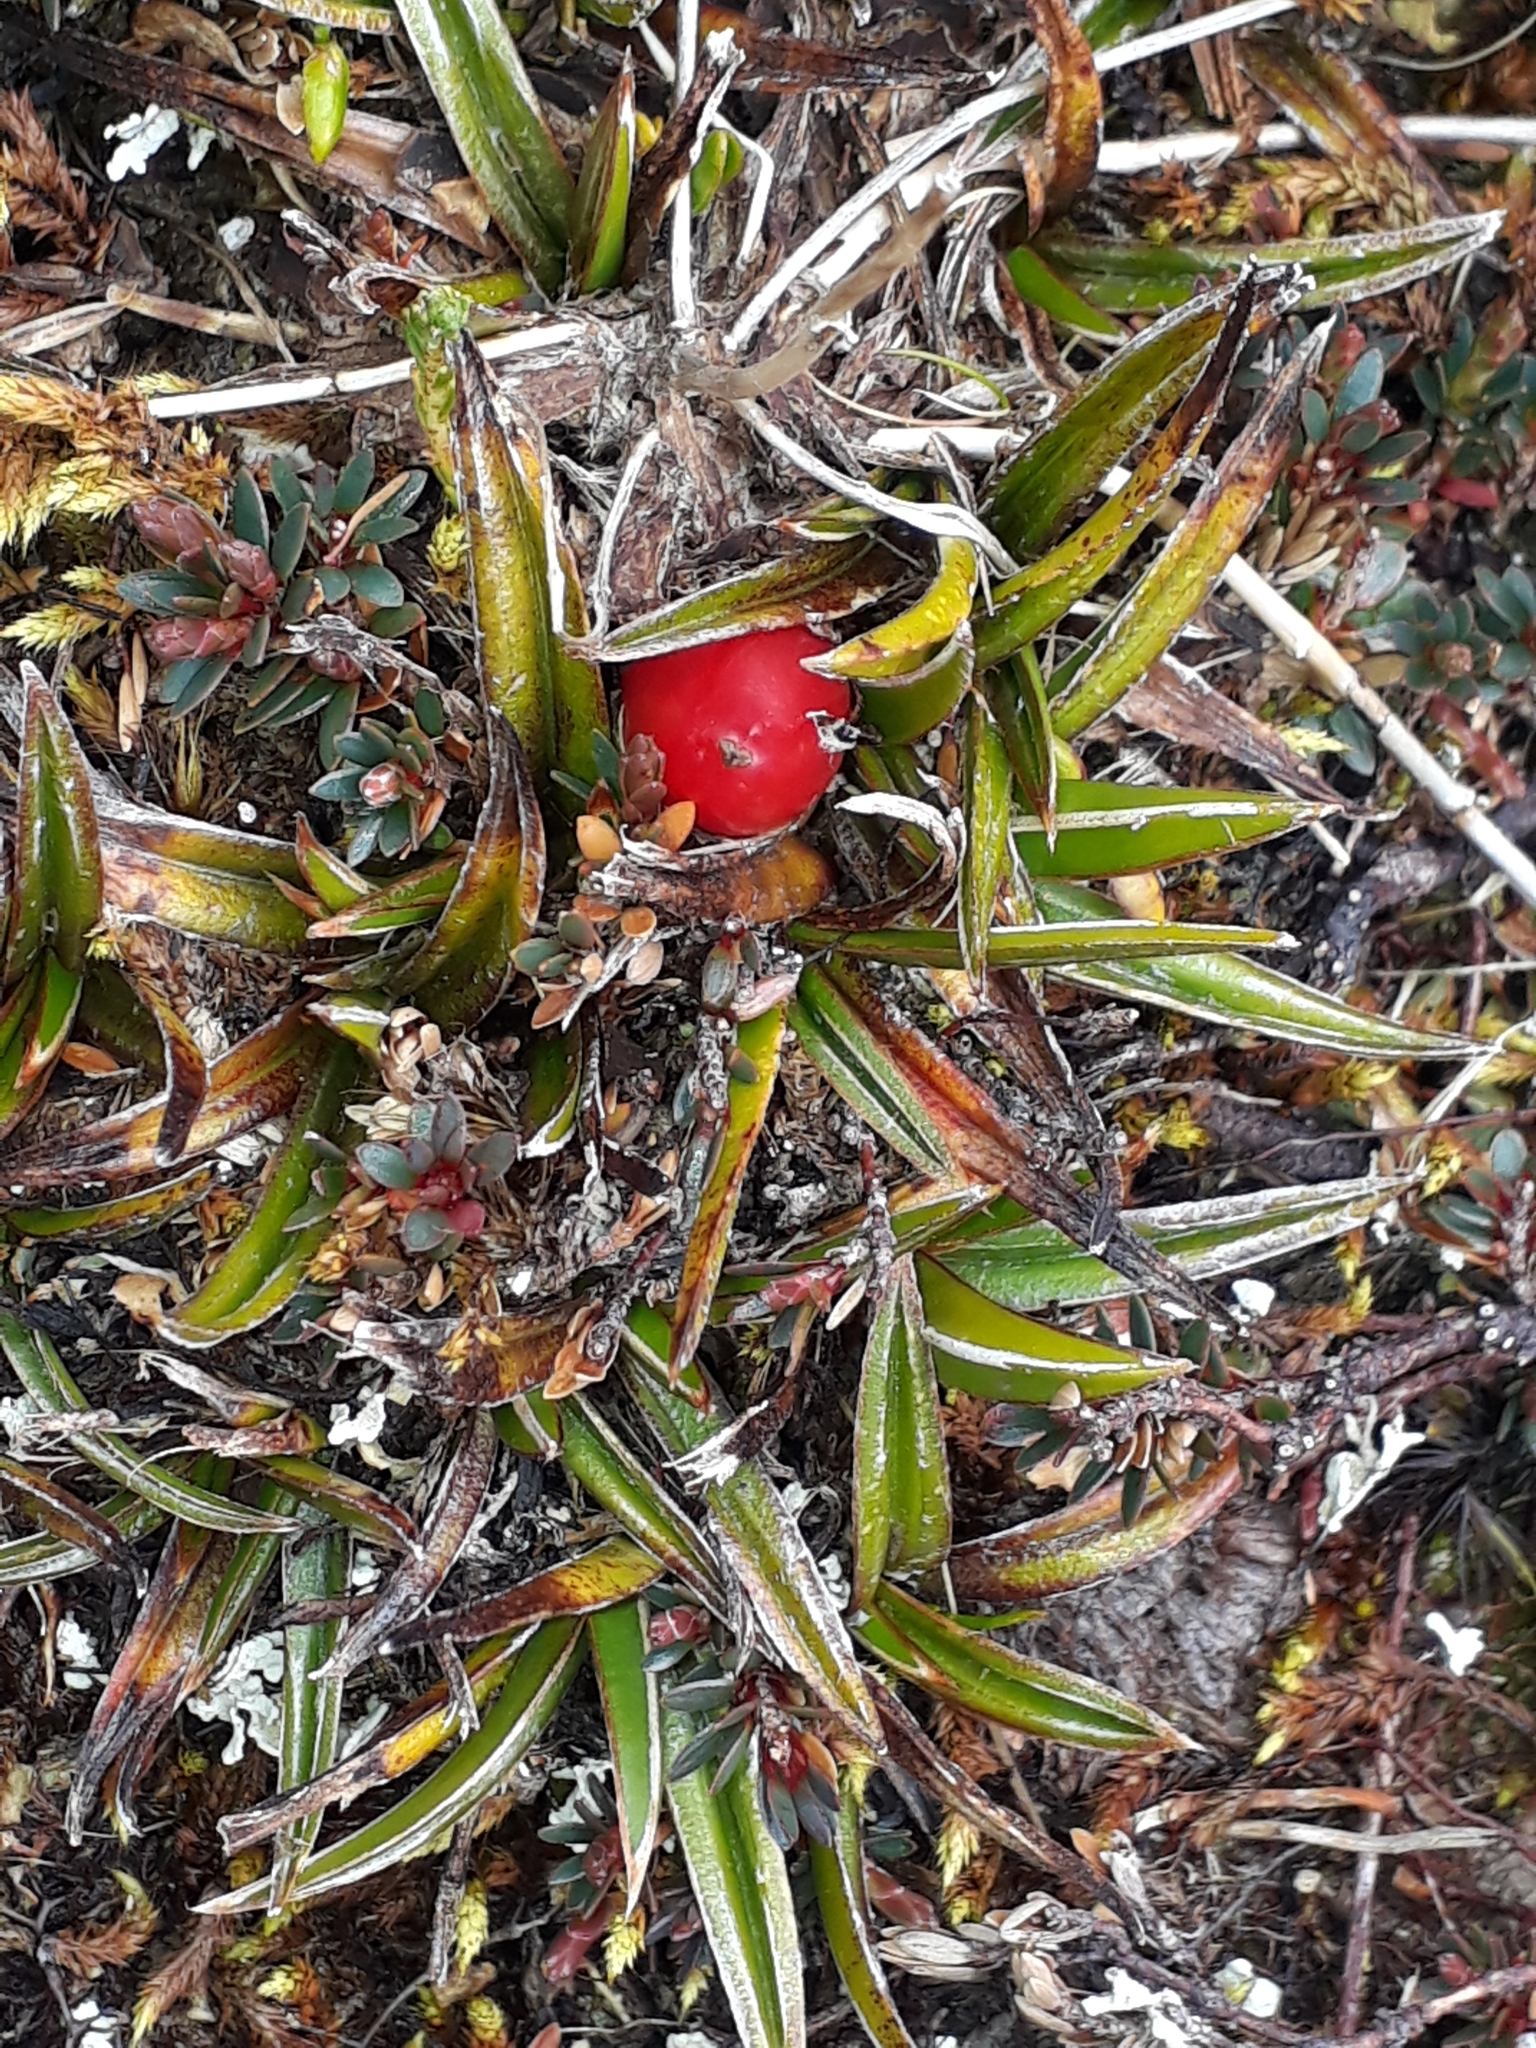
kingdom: Plantae
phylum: Tracheophyta
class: Liliopsida
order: Asparagales
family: Asteliaceae
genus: Astelia
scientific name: Astelia linearis
